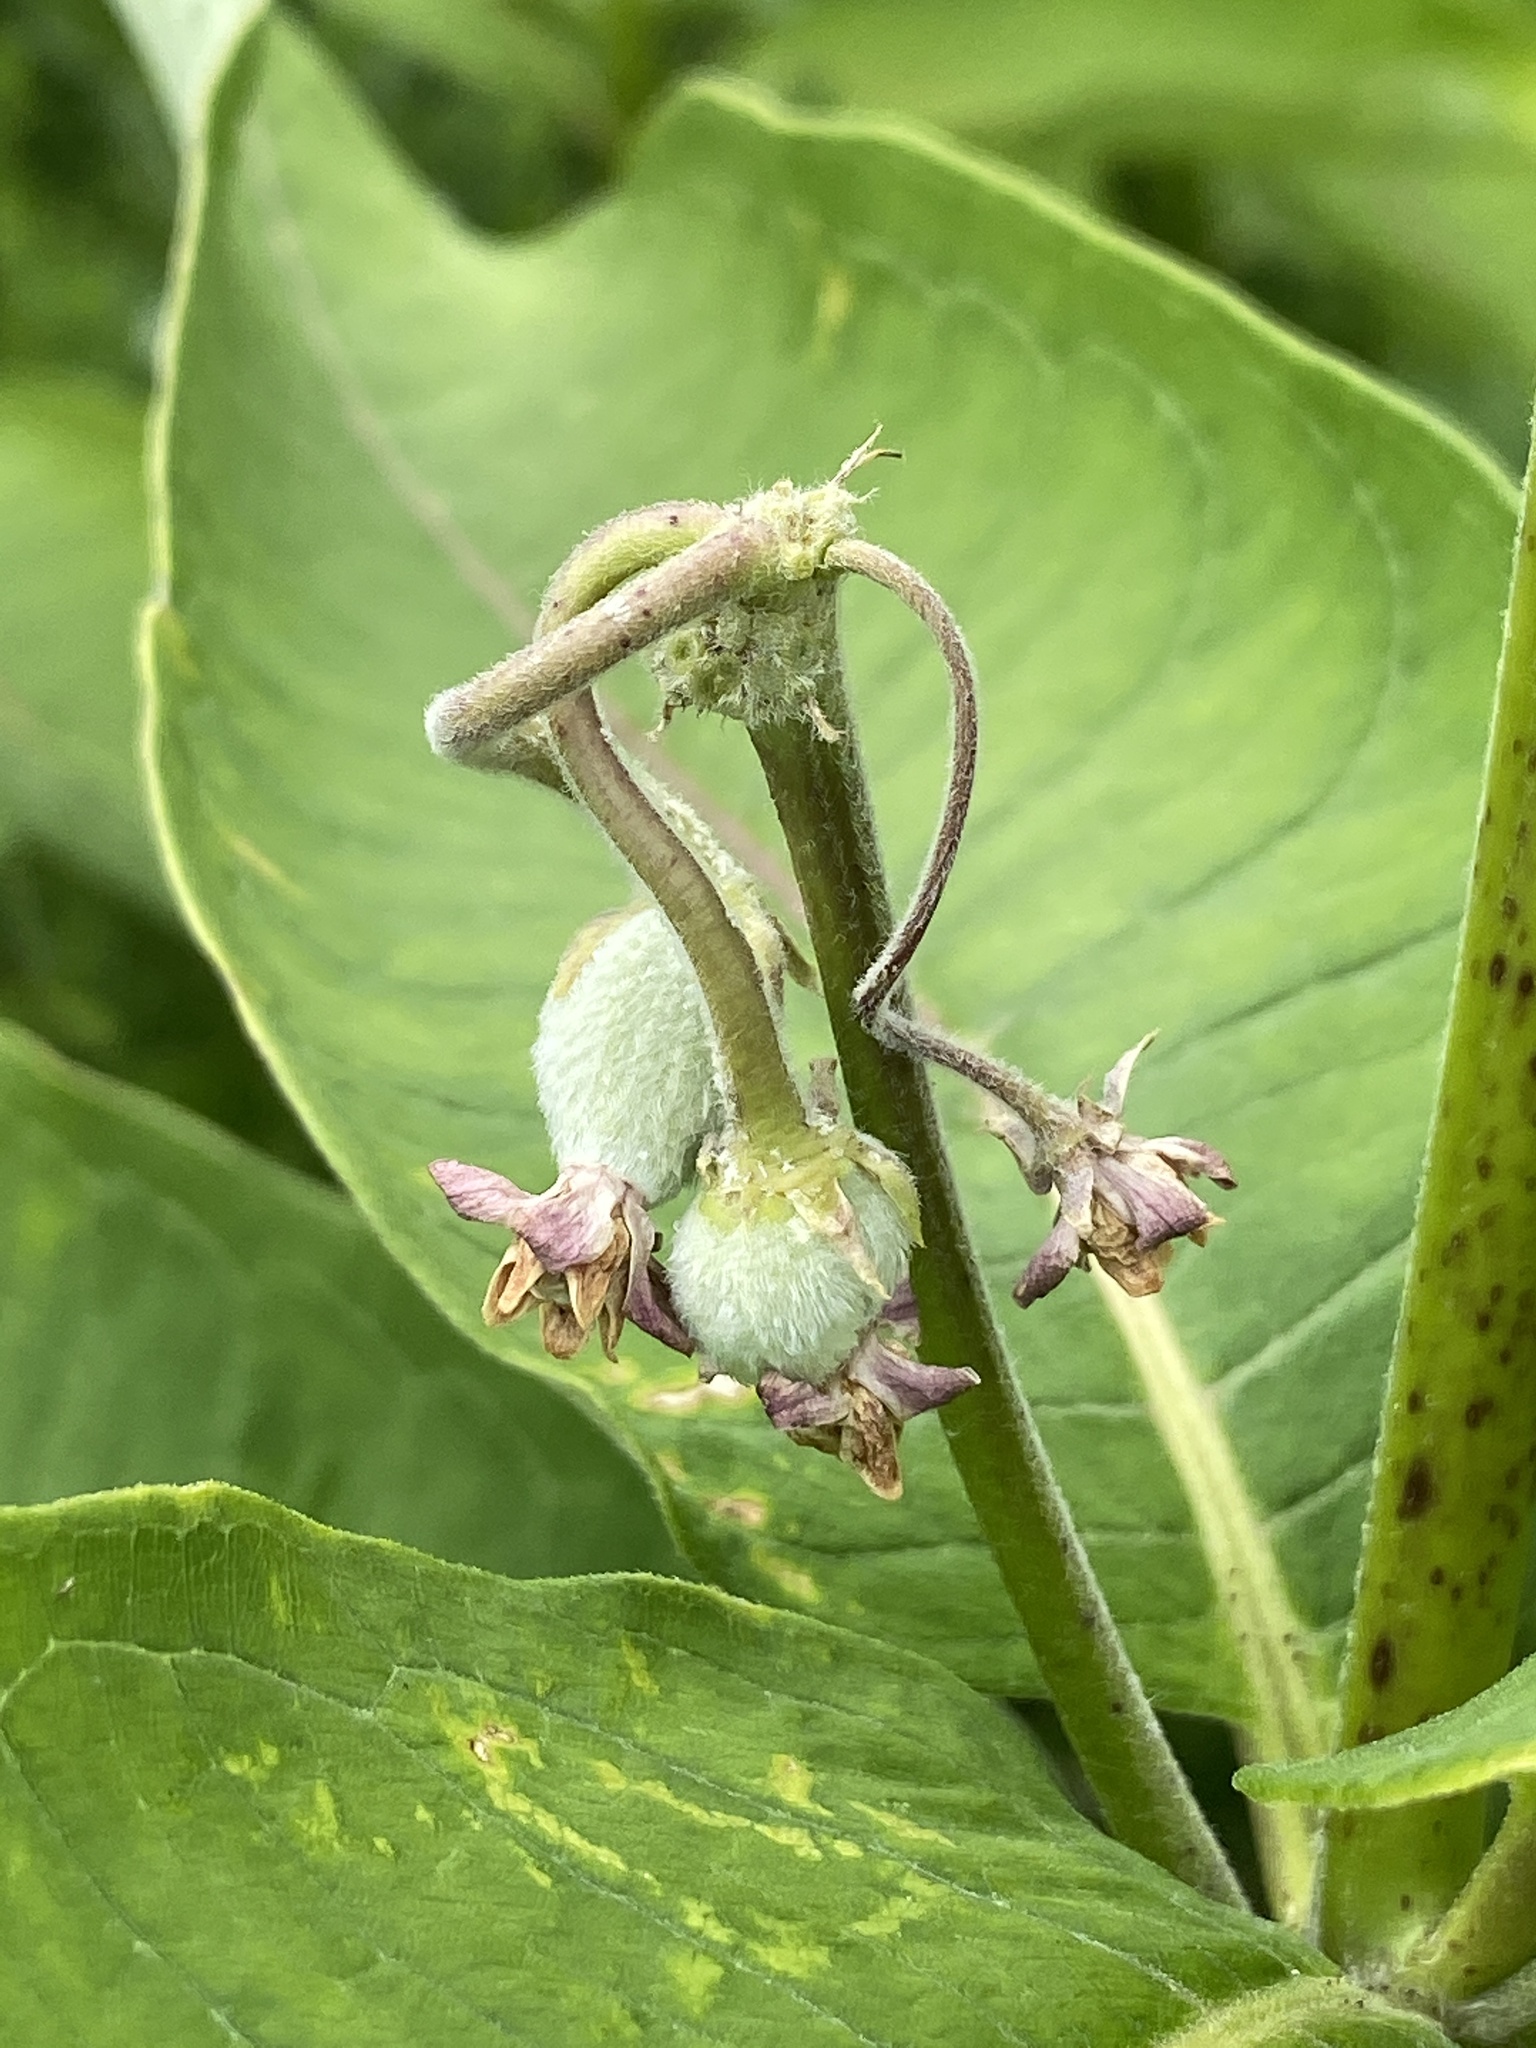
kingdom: Plantae
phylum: Tracheophyta
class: Magnoliopsida
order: Gentianales
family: Apocynaceae
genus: Asclepias
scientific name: Asclepias syriaca
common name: Common milkweed
